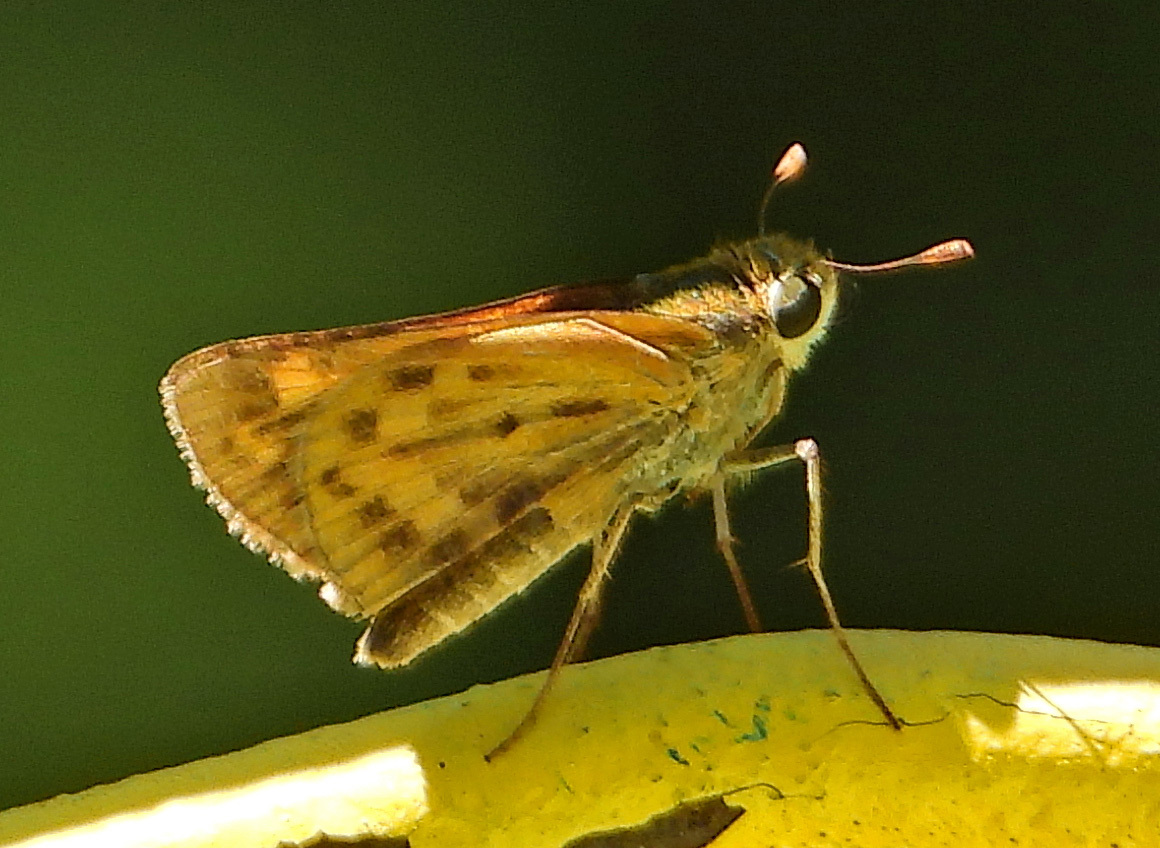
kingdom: Animalia
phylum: Arthropoda
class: Insecta
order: Lepidoptera
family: Hesperiidae
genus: Hylephila
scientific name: Hylephila phyleus
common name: Fiery skipper
